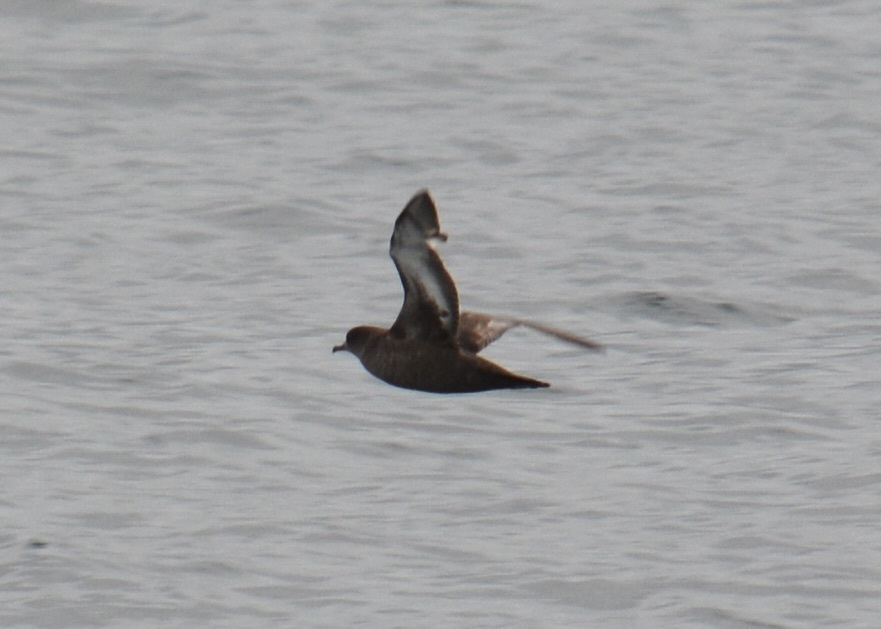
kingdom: Animalia
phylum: Chordata
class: Aves
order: Procellariiformes
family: Procellariidae
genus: Puffinus
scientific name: Puffinus griseus
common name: Sooty shearwater
